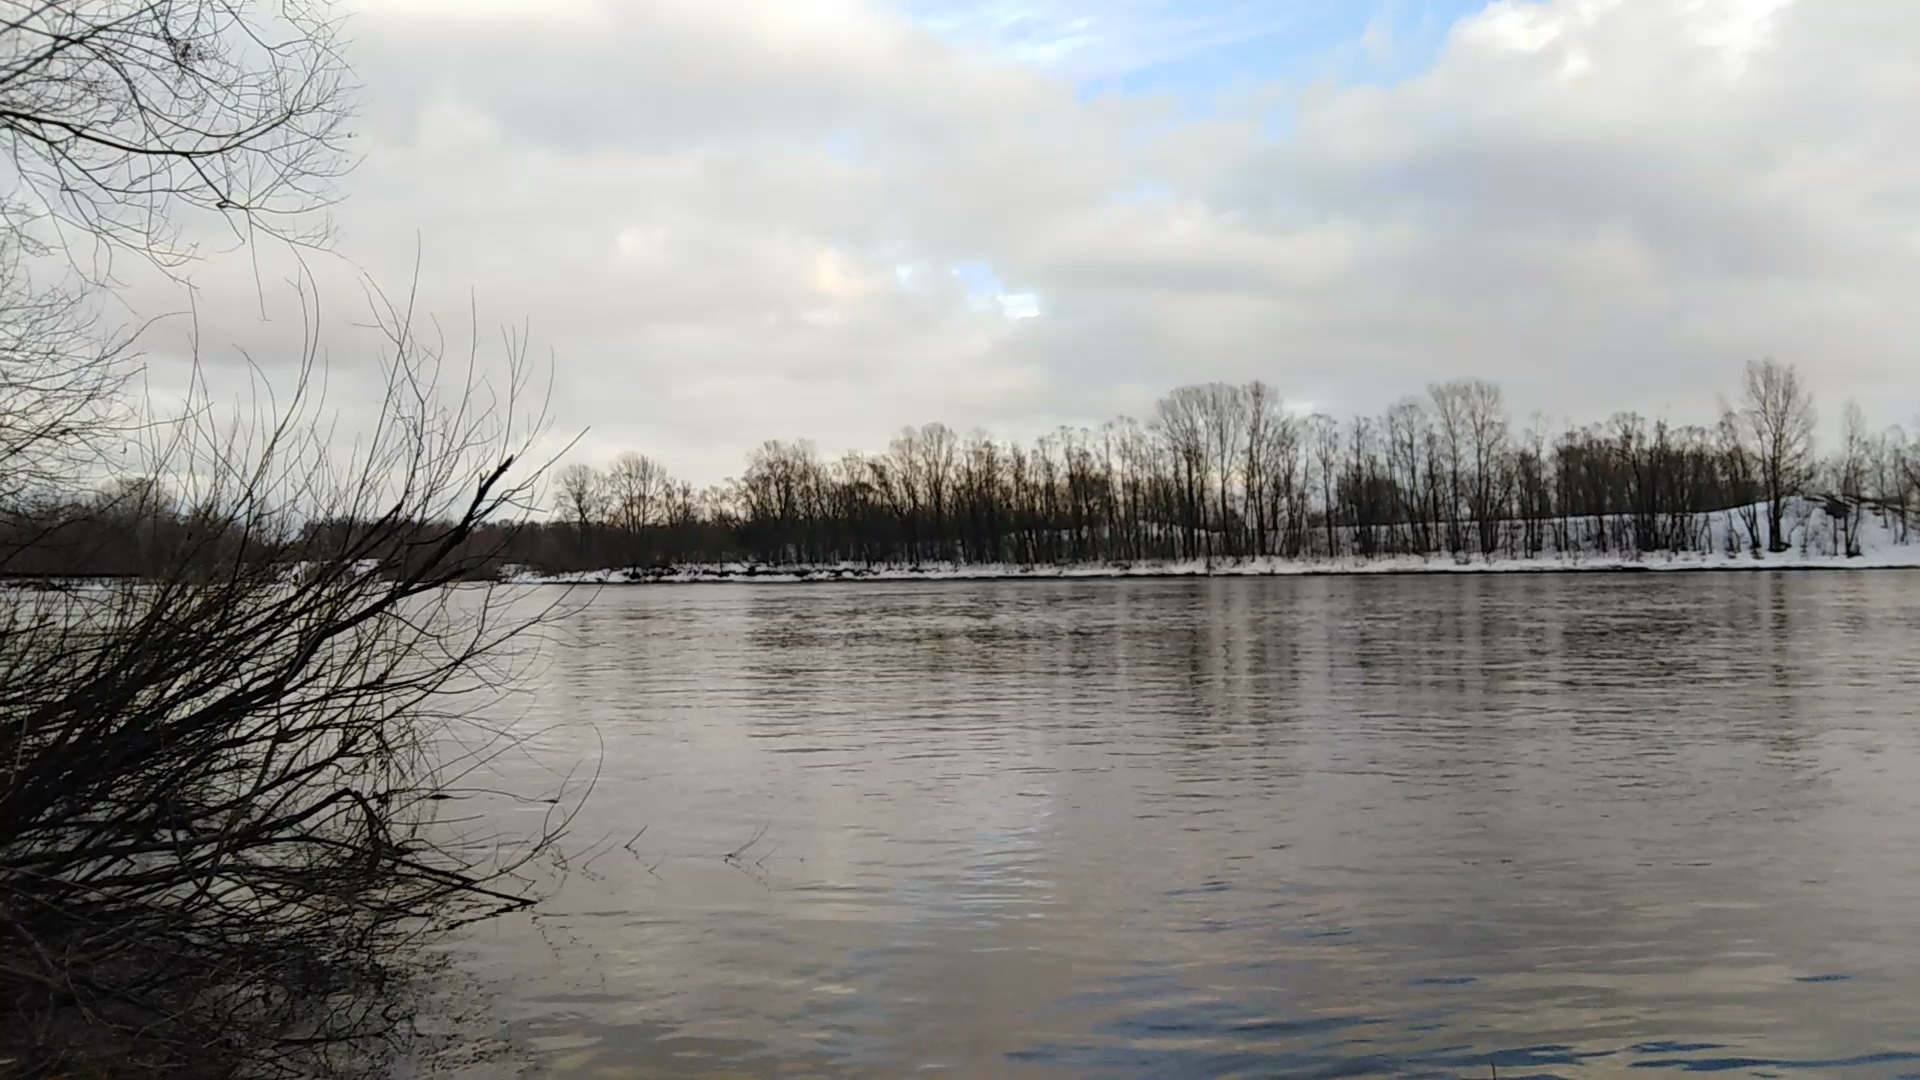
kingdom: Animalia
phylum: Chordata
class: Aves
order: Piciformes
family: Picidae
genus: Picus
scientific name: Picus canus
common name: Grey-headed woodpecker
